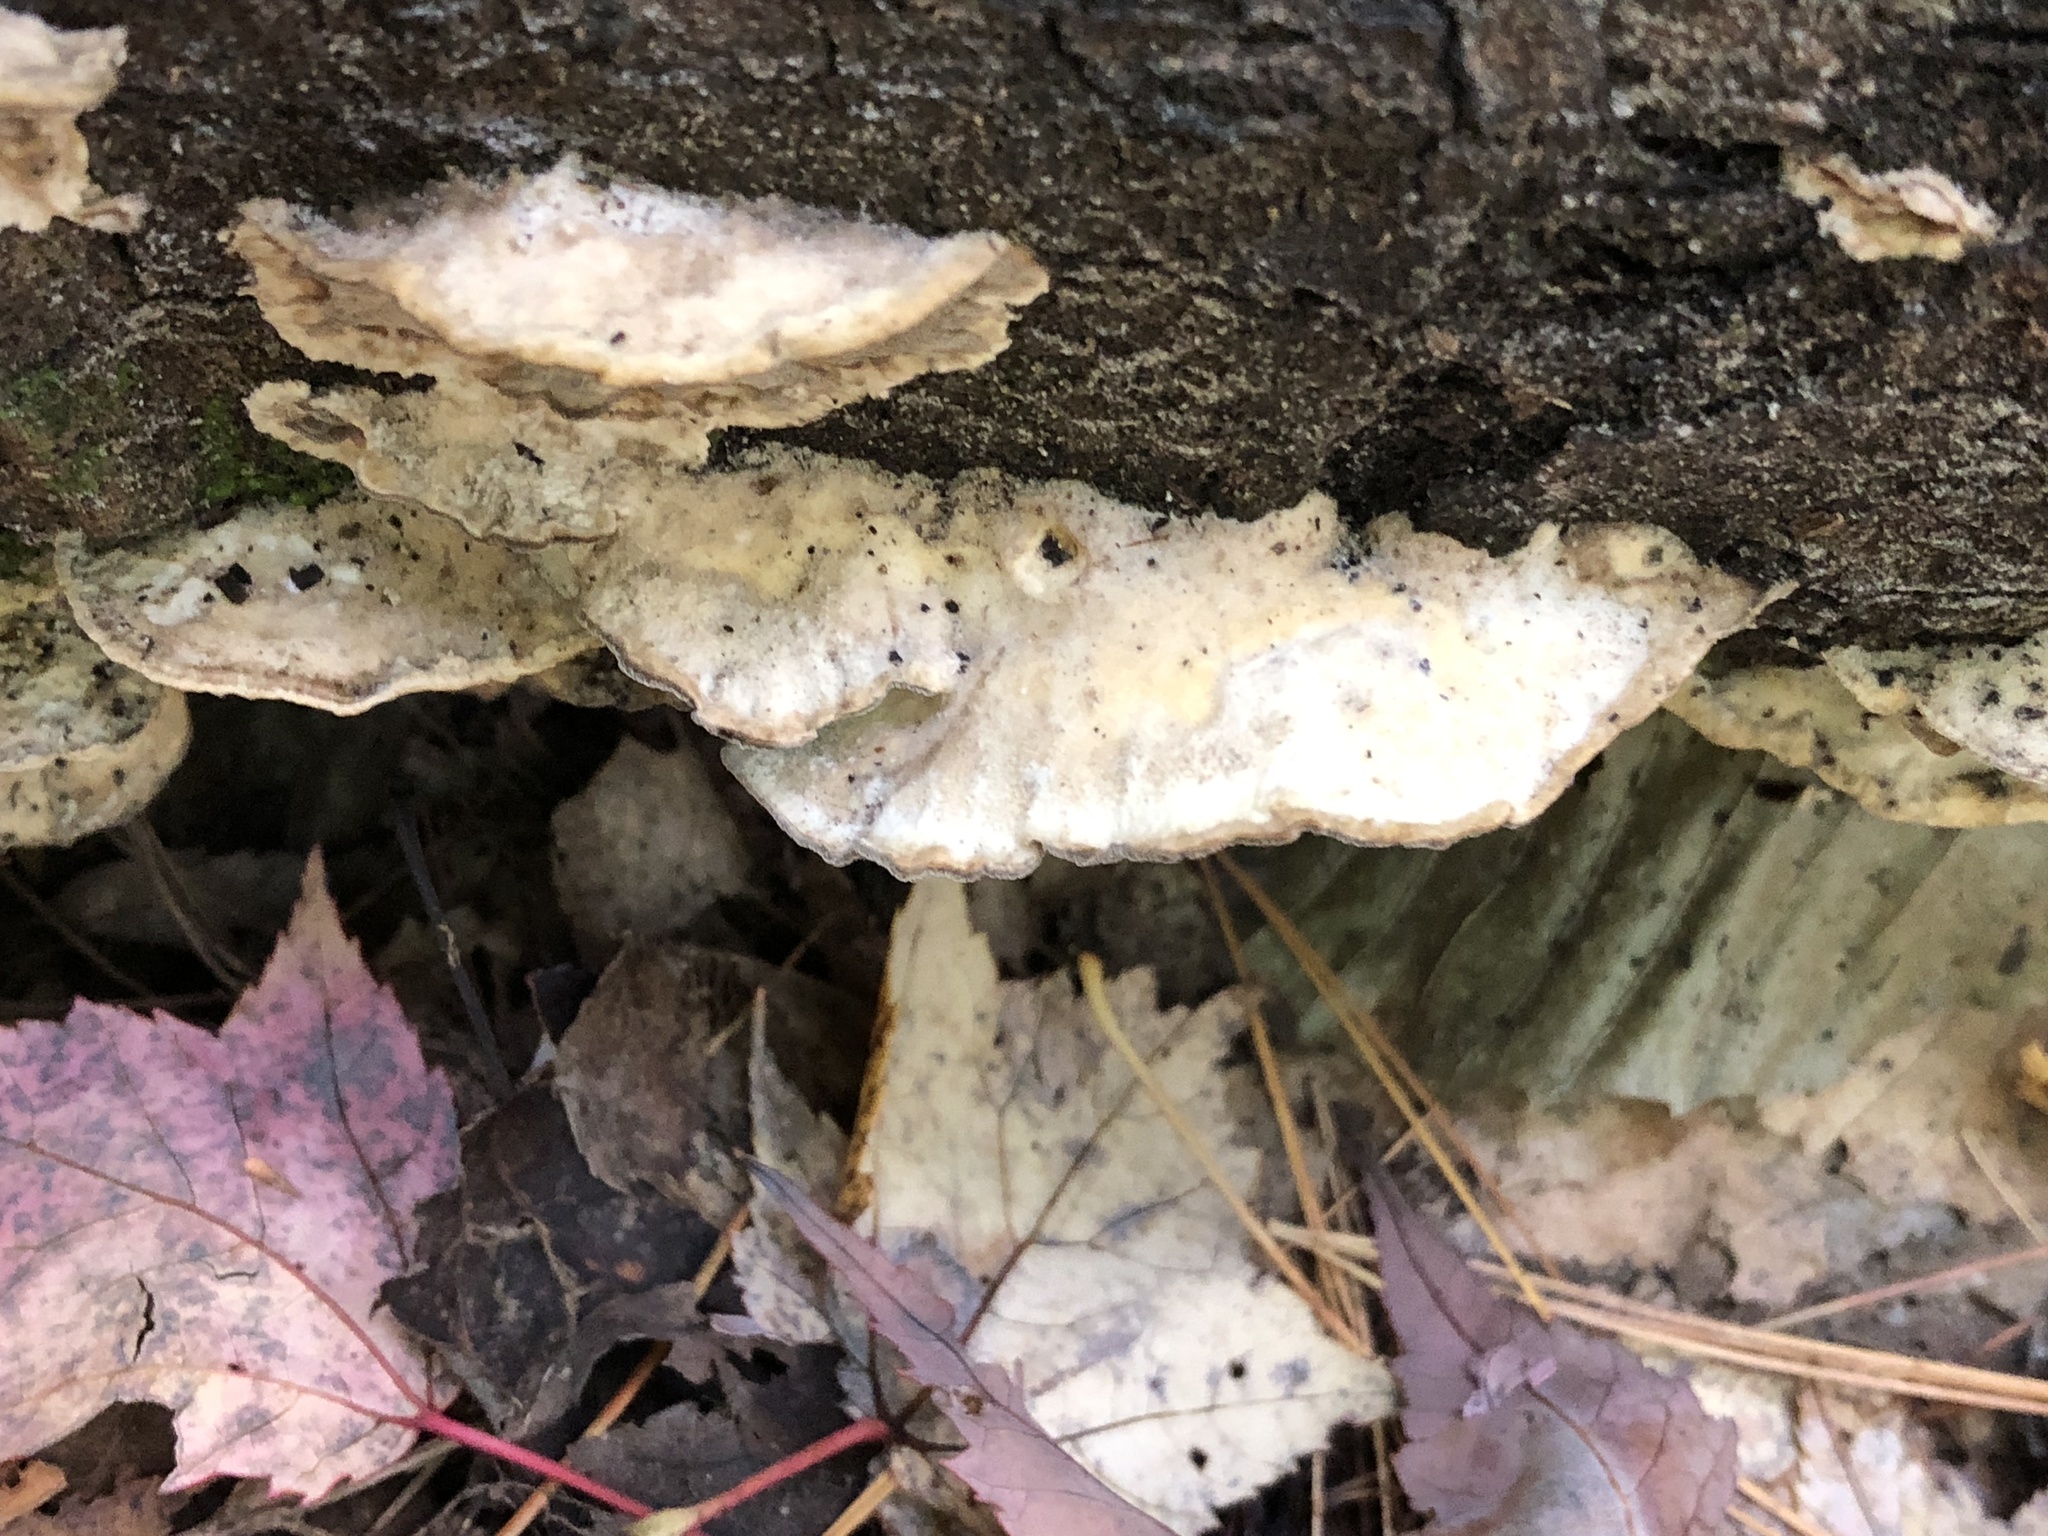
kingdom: Fungi
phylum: Basidiomycota
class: Agaricomycetes
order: Polyporales
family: Meruliaceae
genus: Phlebia
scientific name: Phlebia tremellosa
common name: Jelly rot
